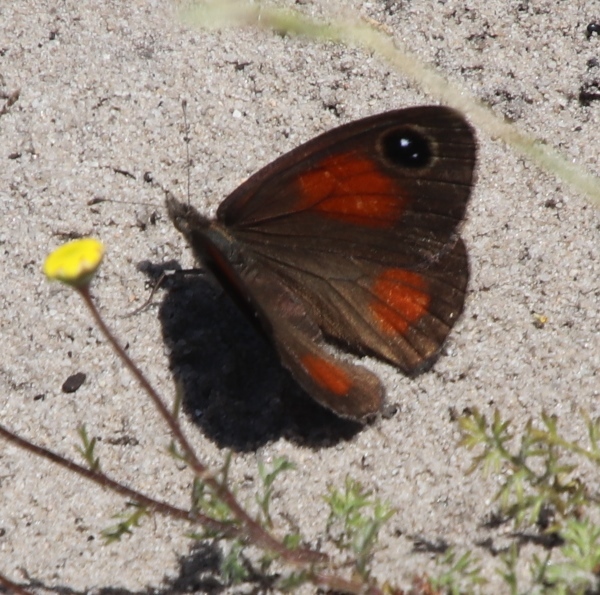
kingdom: Animalia
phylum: Arthropoda
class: Insecta
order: Lepidoptera
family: Nymphalidae
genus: Pseudonympha
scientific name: Pseudonympha magus
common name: Silver-bottom brown
